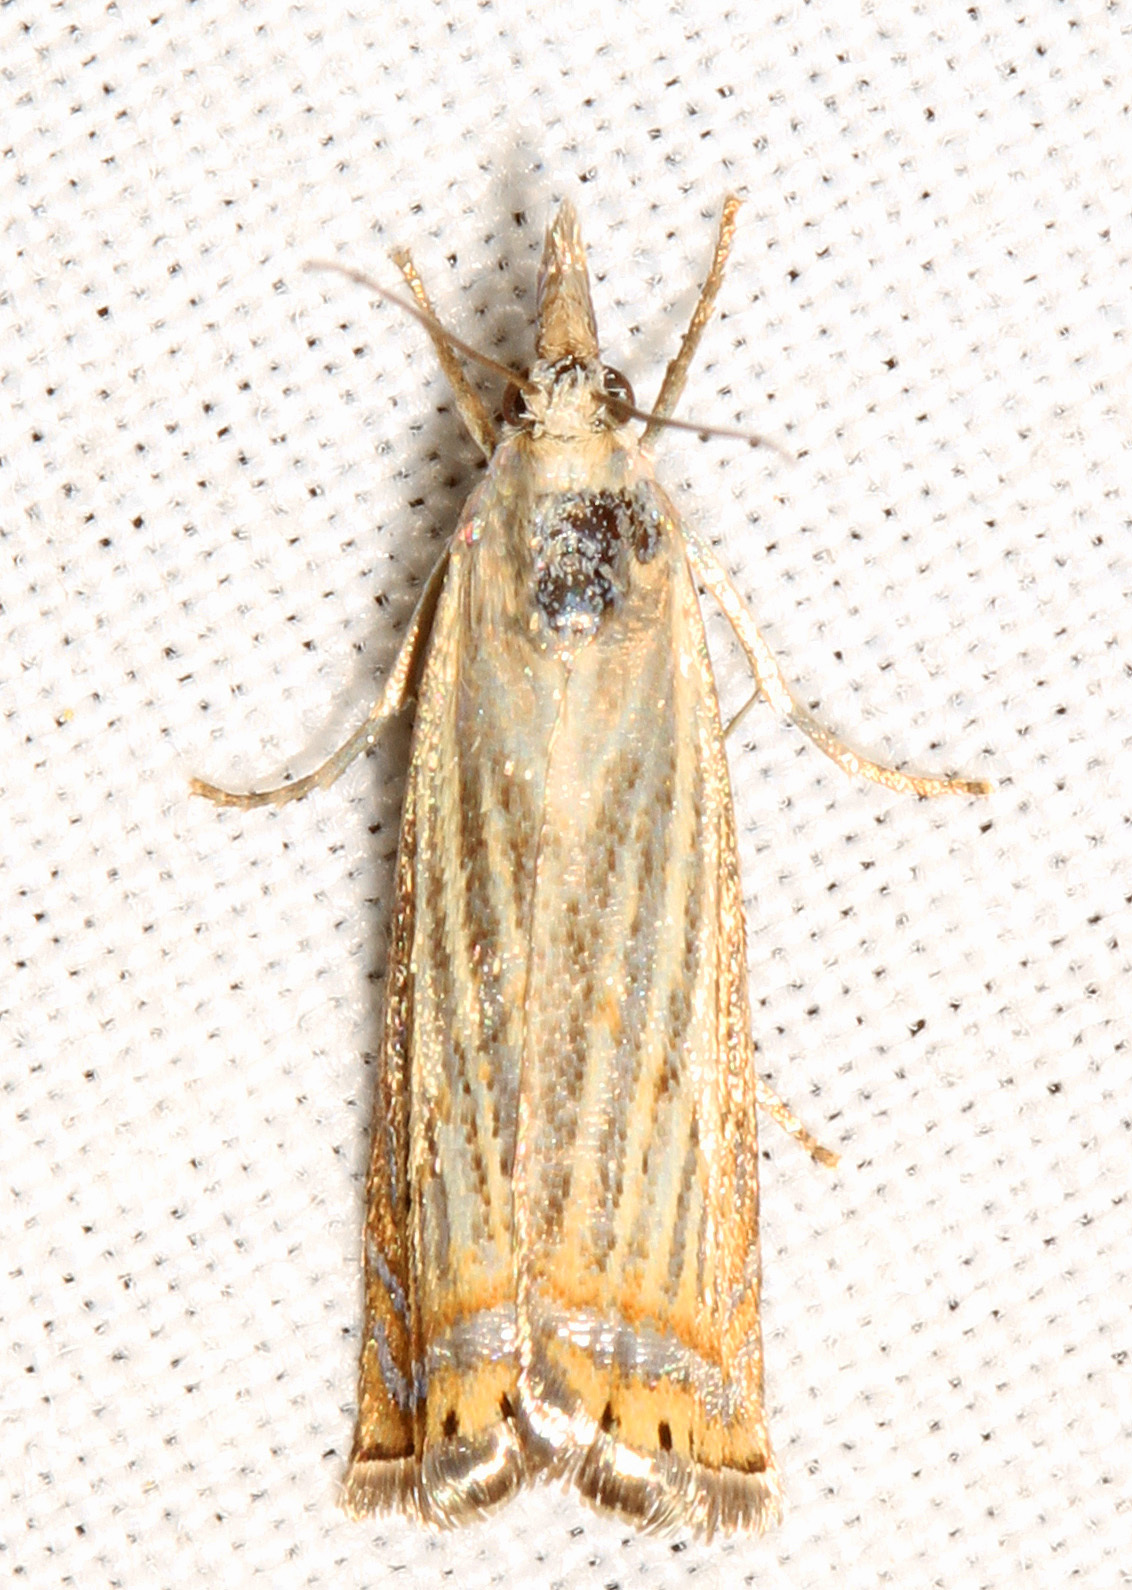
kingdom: Animalia
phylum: Arthropoda
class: Insecta
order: Lepidoptera
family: Crambidae
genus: Chrysoteuchia
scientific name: Chrysoteuchia topiarius
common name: Topiary grass-veneer
